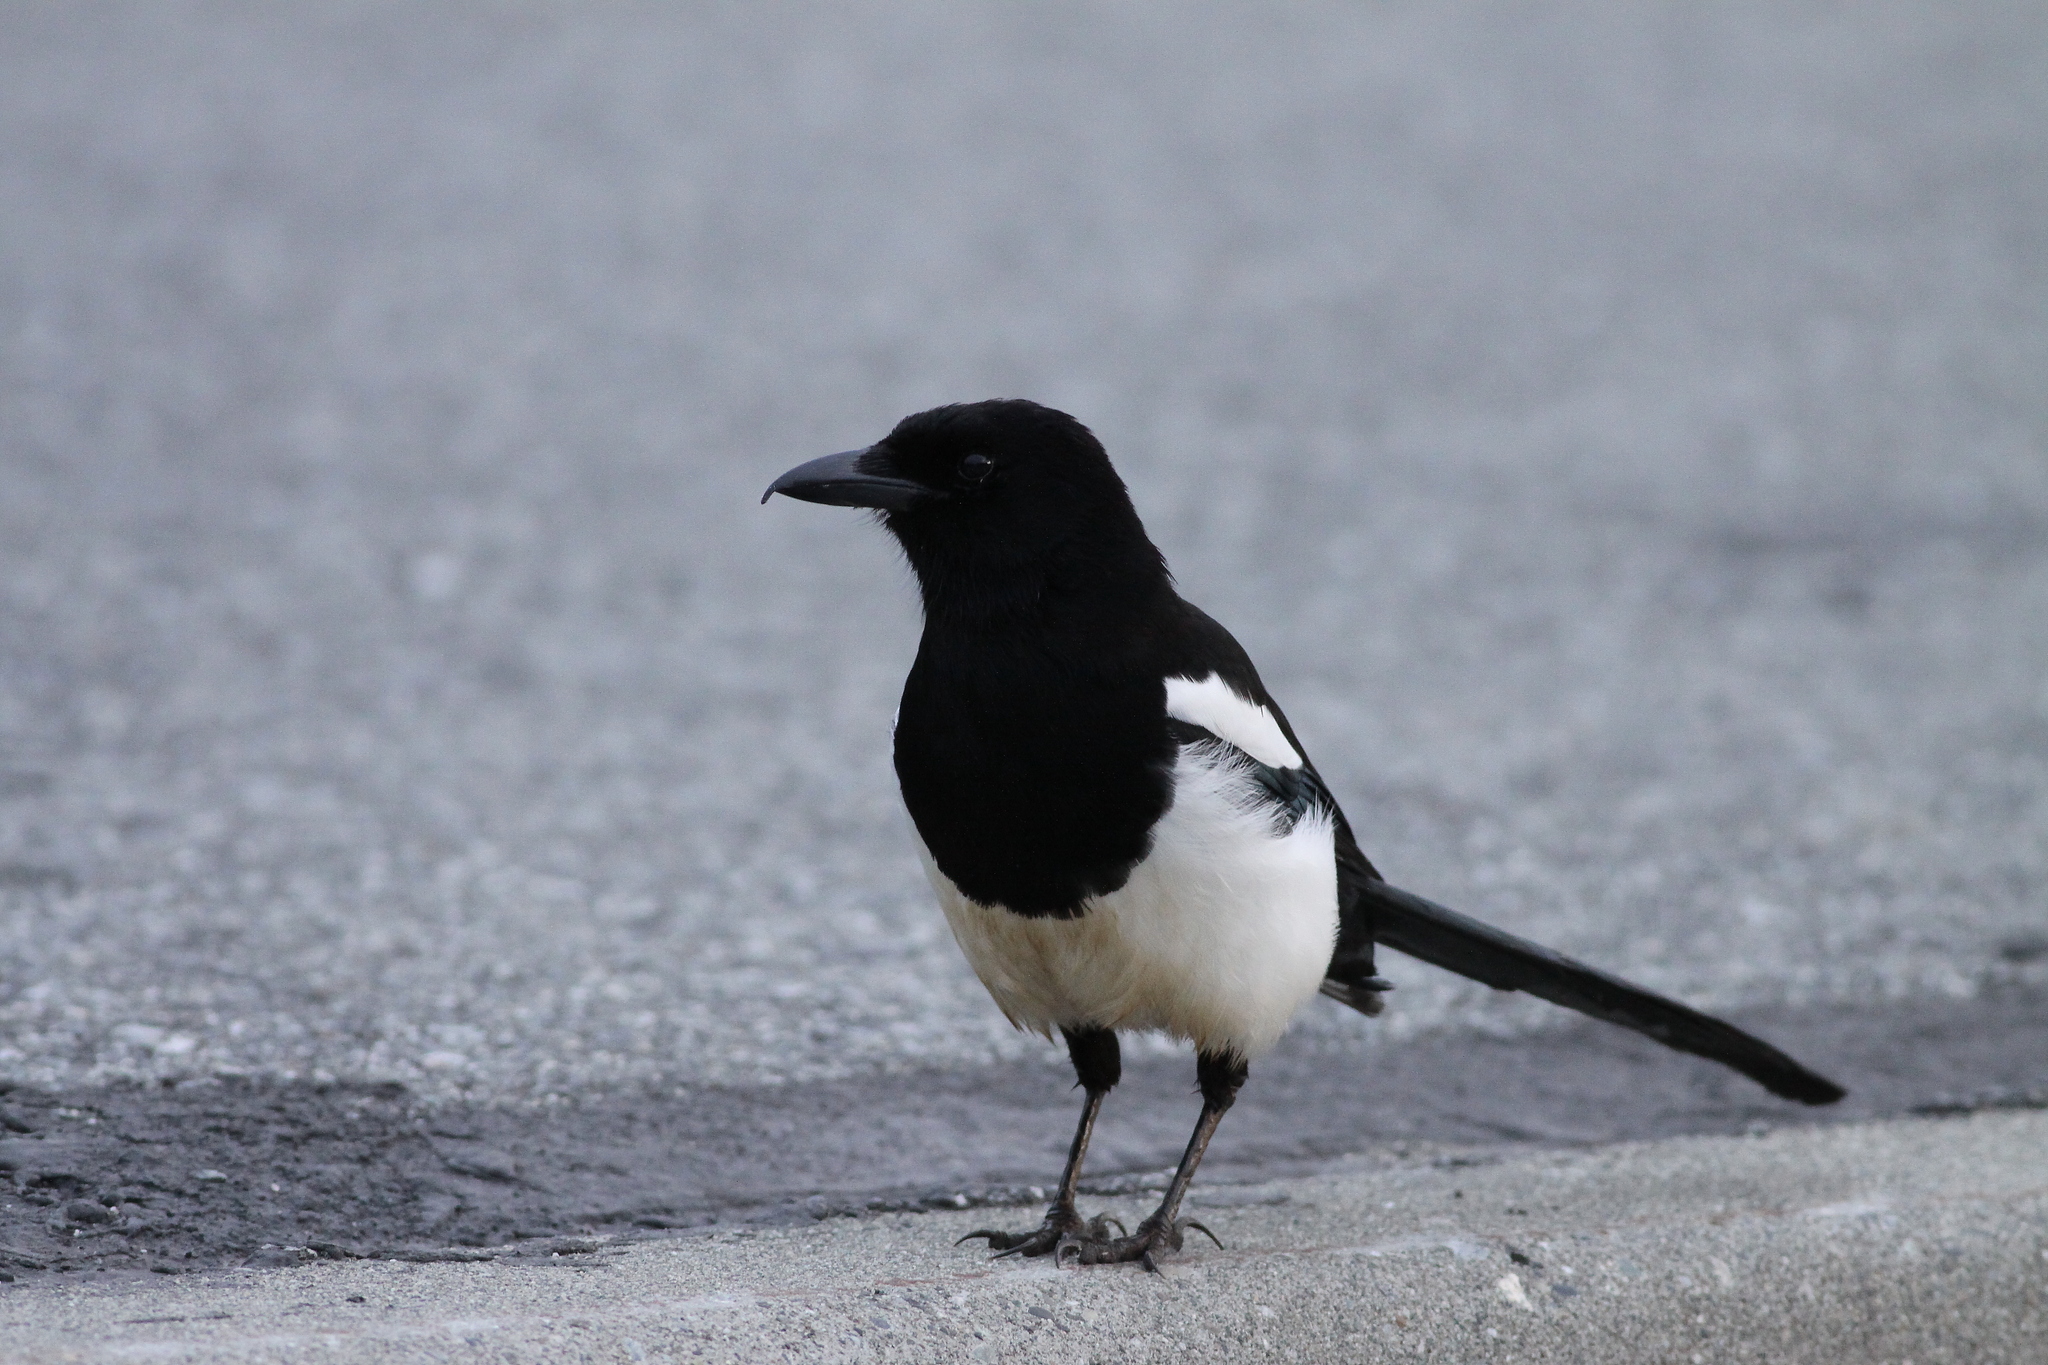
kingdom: Animalia
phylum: Chordata
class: Aves
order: Passeriformes
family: Corvidae
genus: Pica
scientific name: Pica hudsonia
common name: Black-billed magpie
